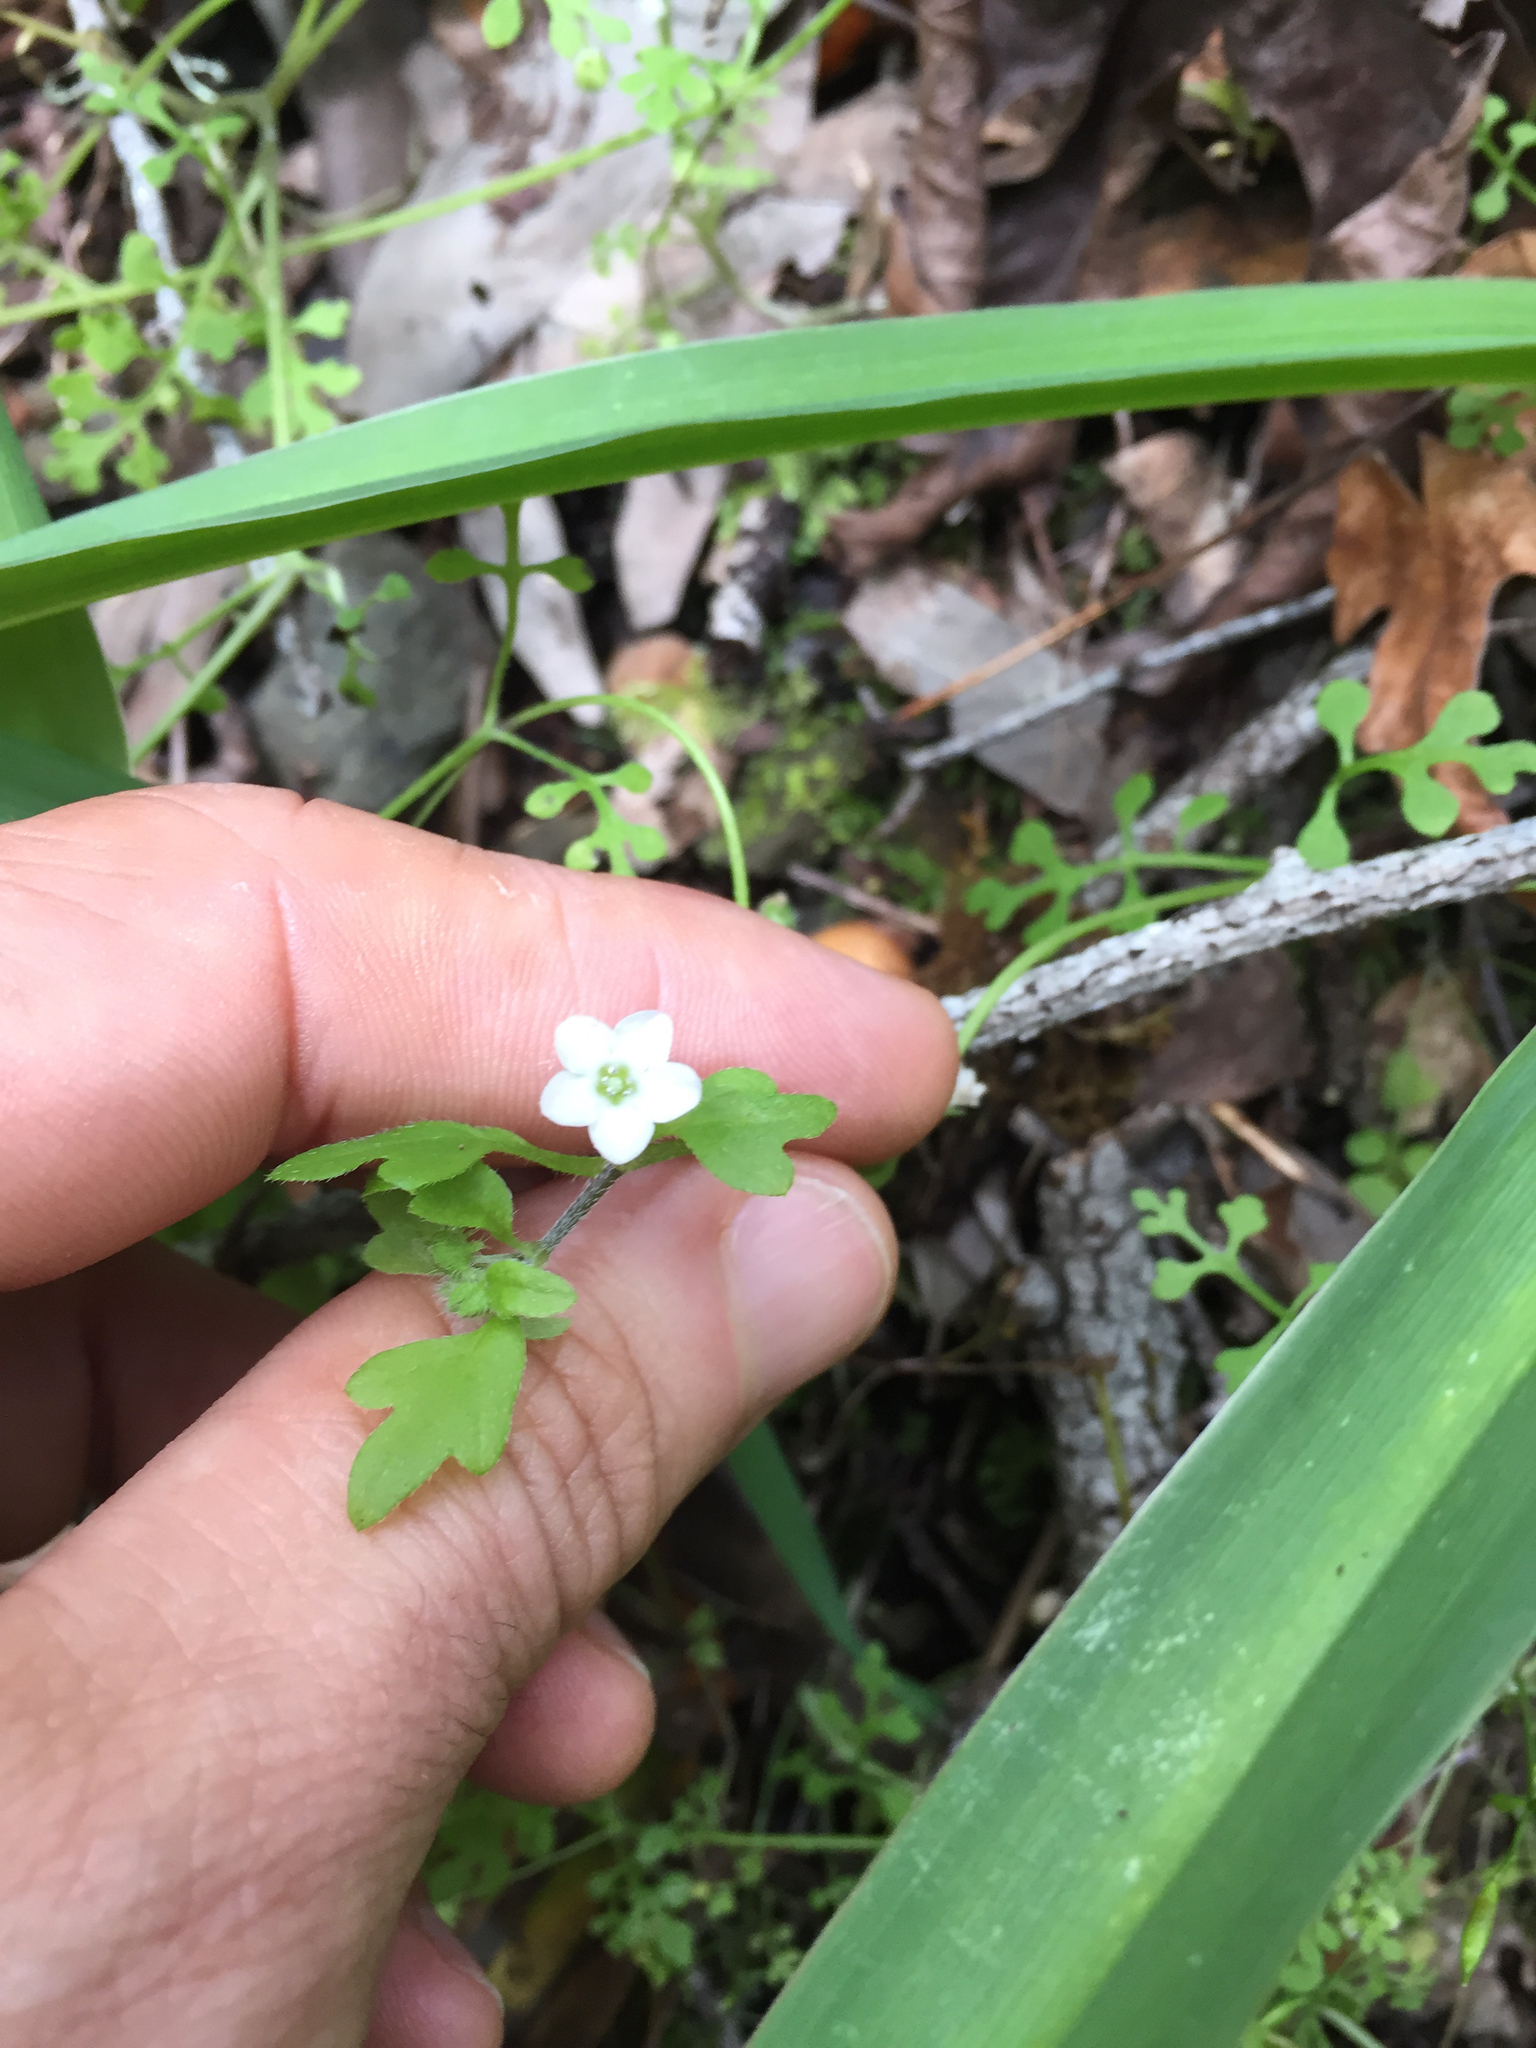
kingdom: Plantae
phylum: Tracheophyta
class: Magnoliopsida
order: Boraginales
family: Hydrophyllaceae
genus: Nemophila
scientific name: Nemophila heterophylla
